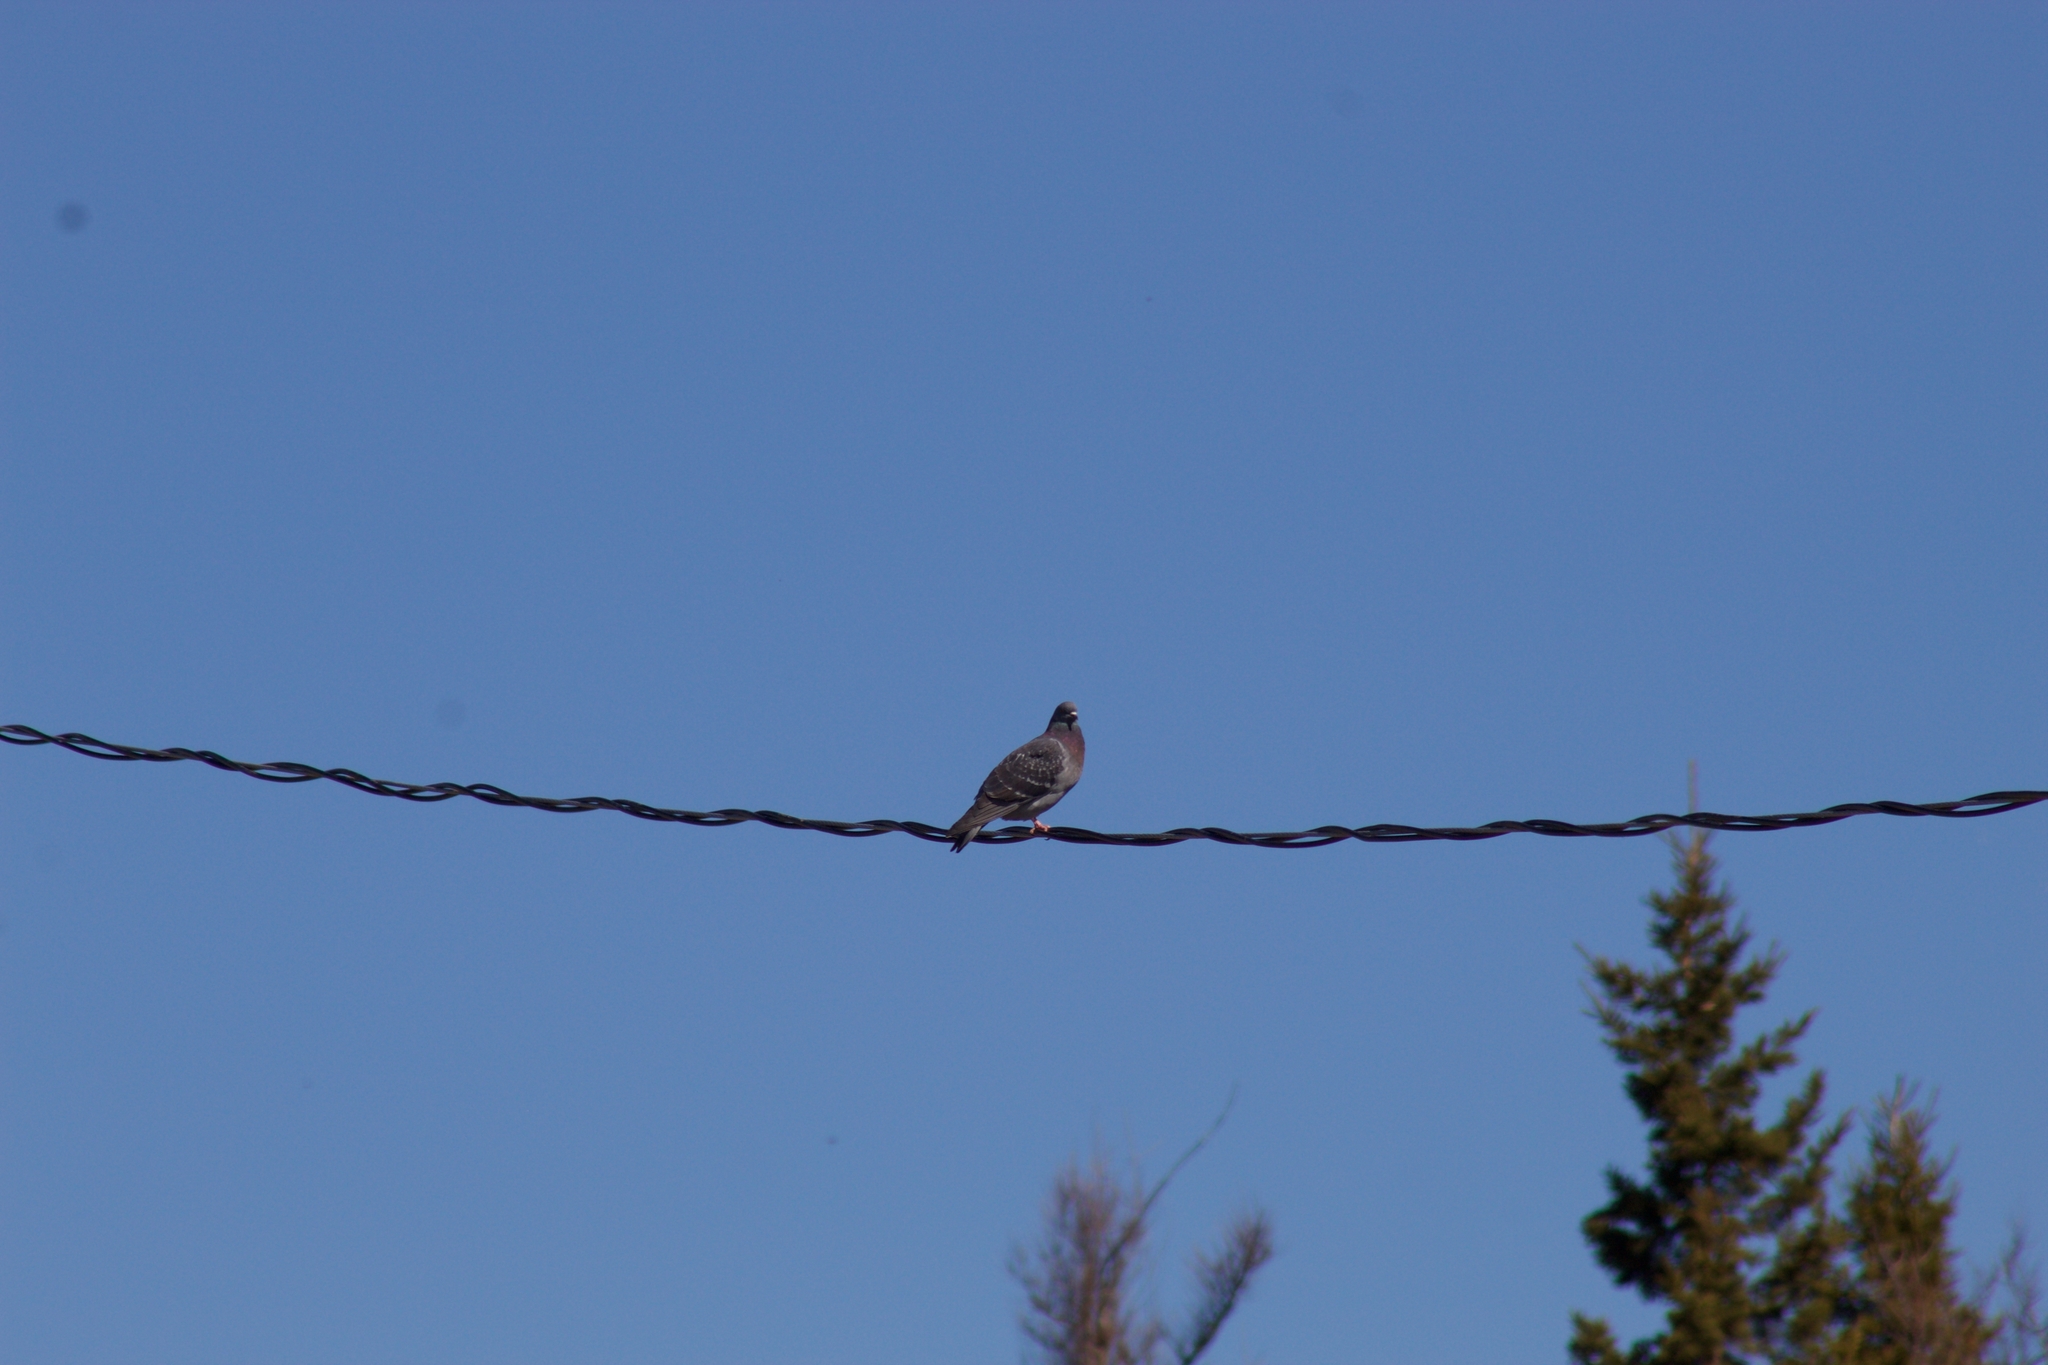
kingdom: Animalia
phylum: Chordata
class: Aves
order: Columbiformes
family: Columbidae
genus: Columba
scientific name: Columba livia
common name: Rock pigeon
